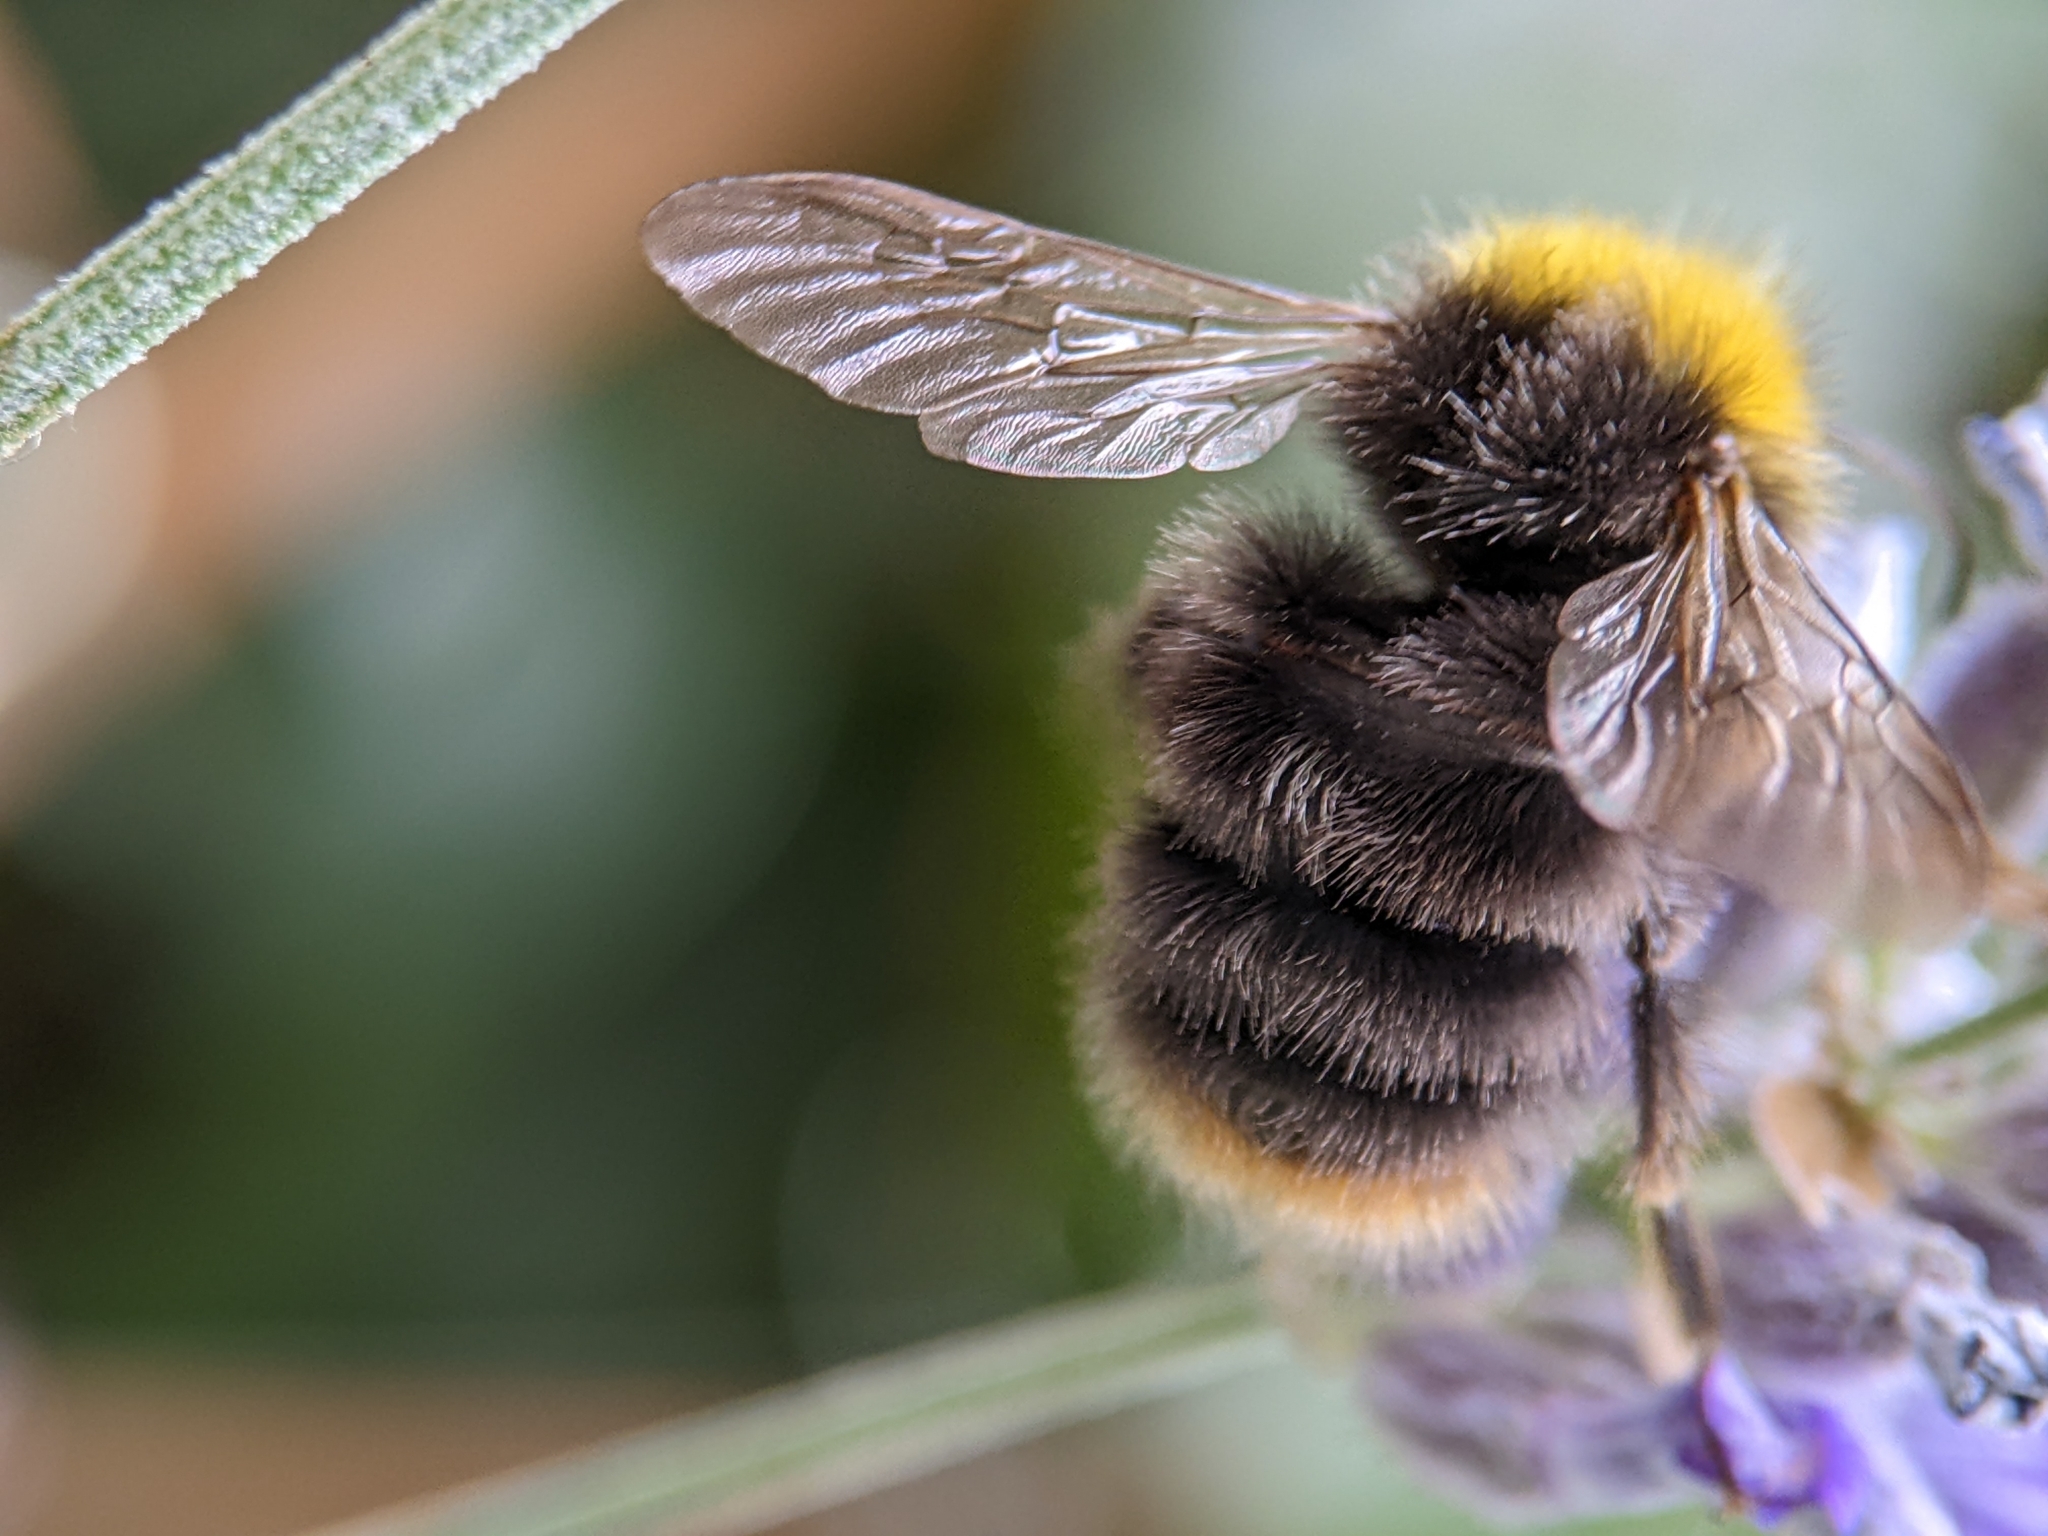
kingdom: Animalia
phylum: Arthropoda
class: Insecta
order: Hymenoptera
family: Apidae
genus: Bombus
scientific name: Bombus pratorum
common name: Early humble-bee
